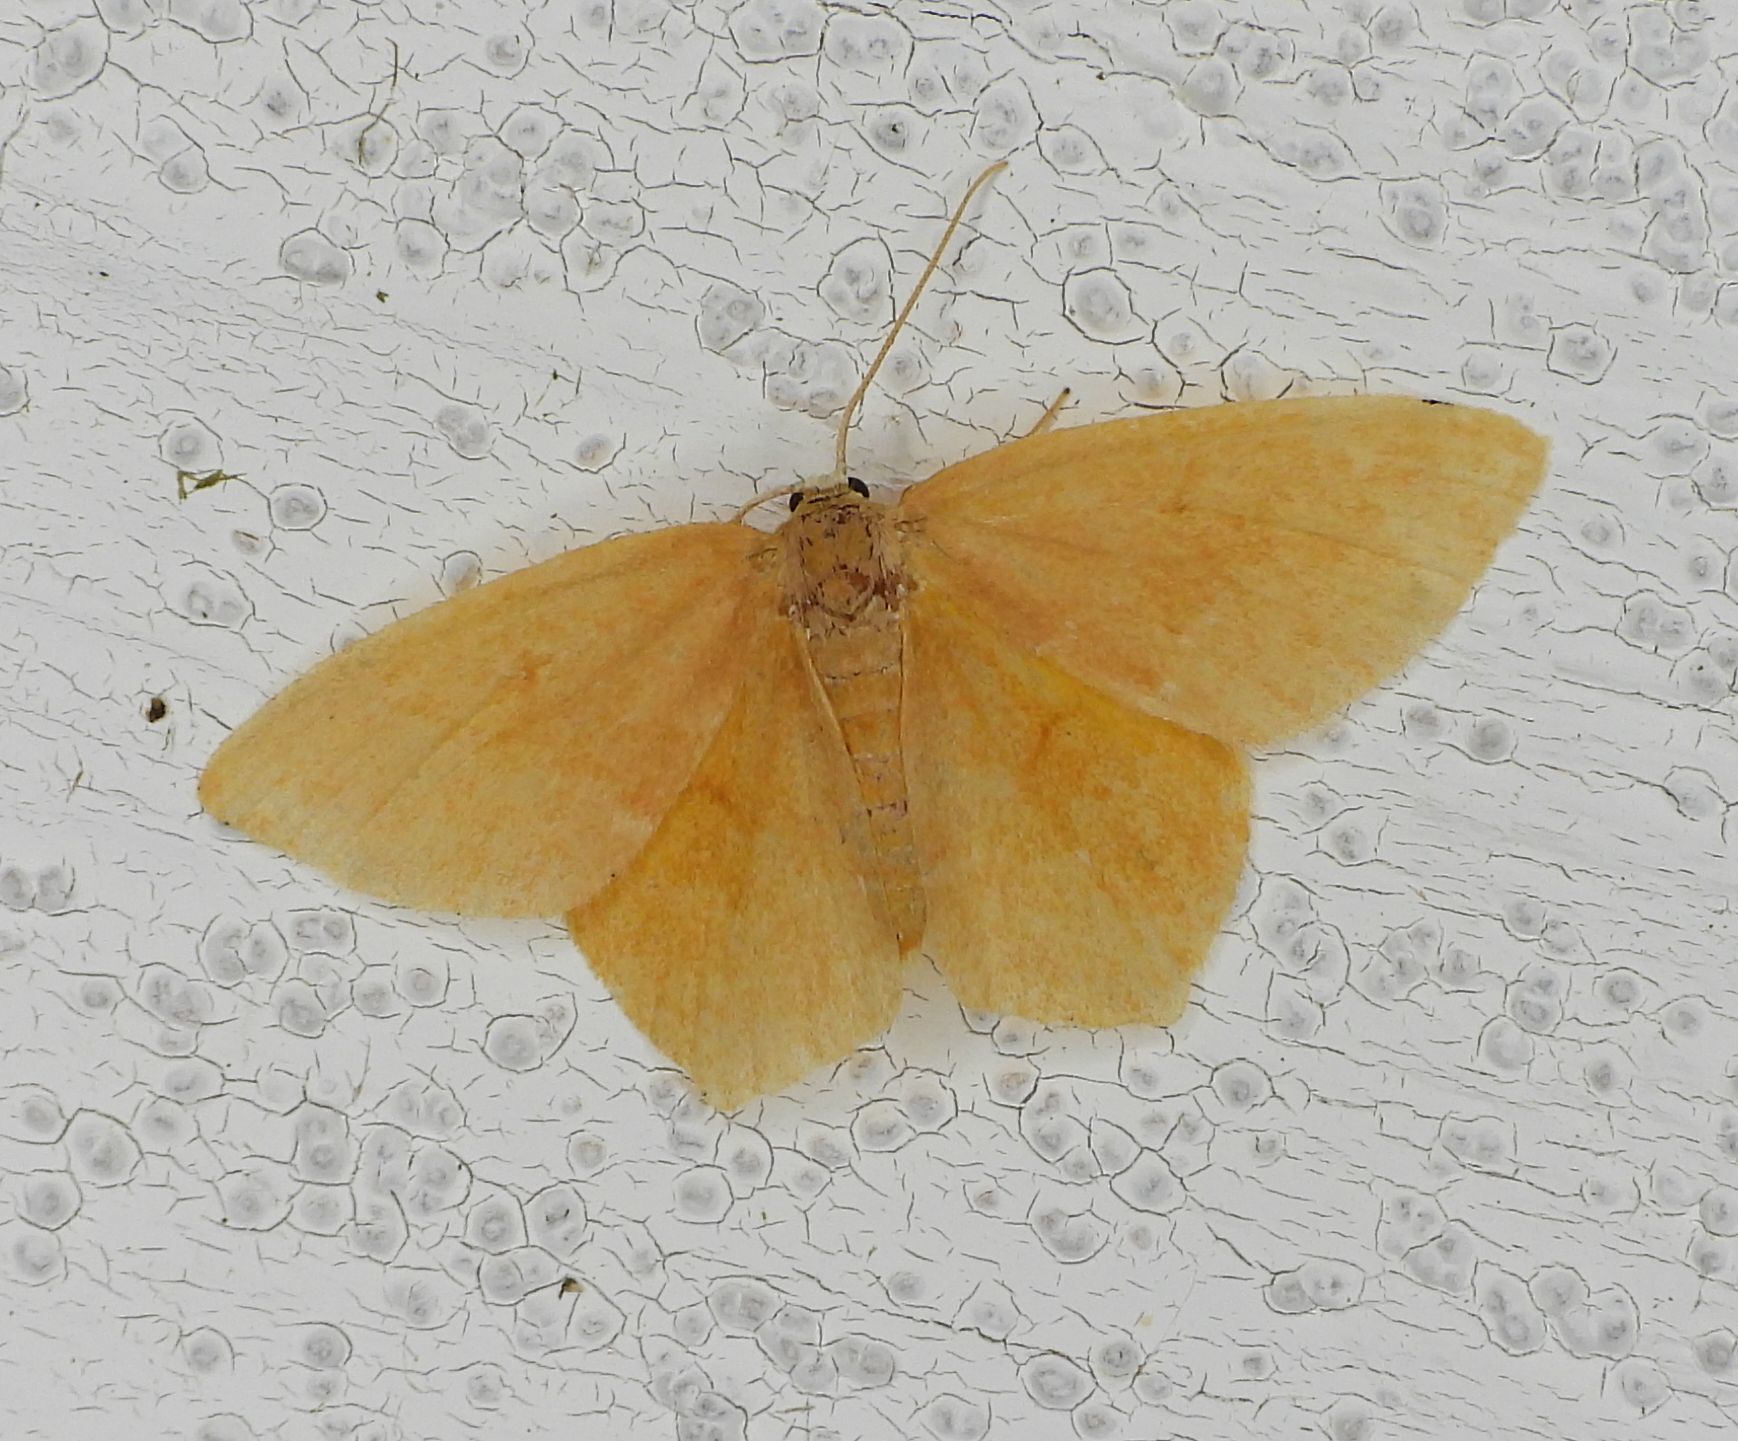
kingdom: Animalia
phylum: Arthropoda
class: Insecta
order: Lepidoptera
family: Geometridae
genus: Thalera
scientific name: Thalera pistasciaria
